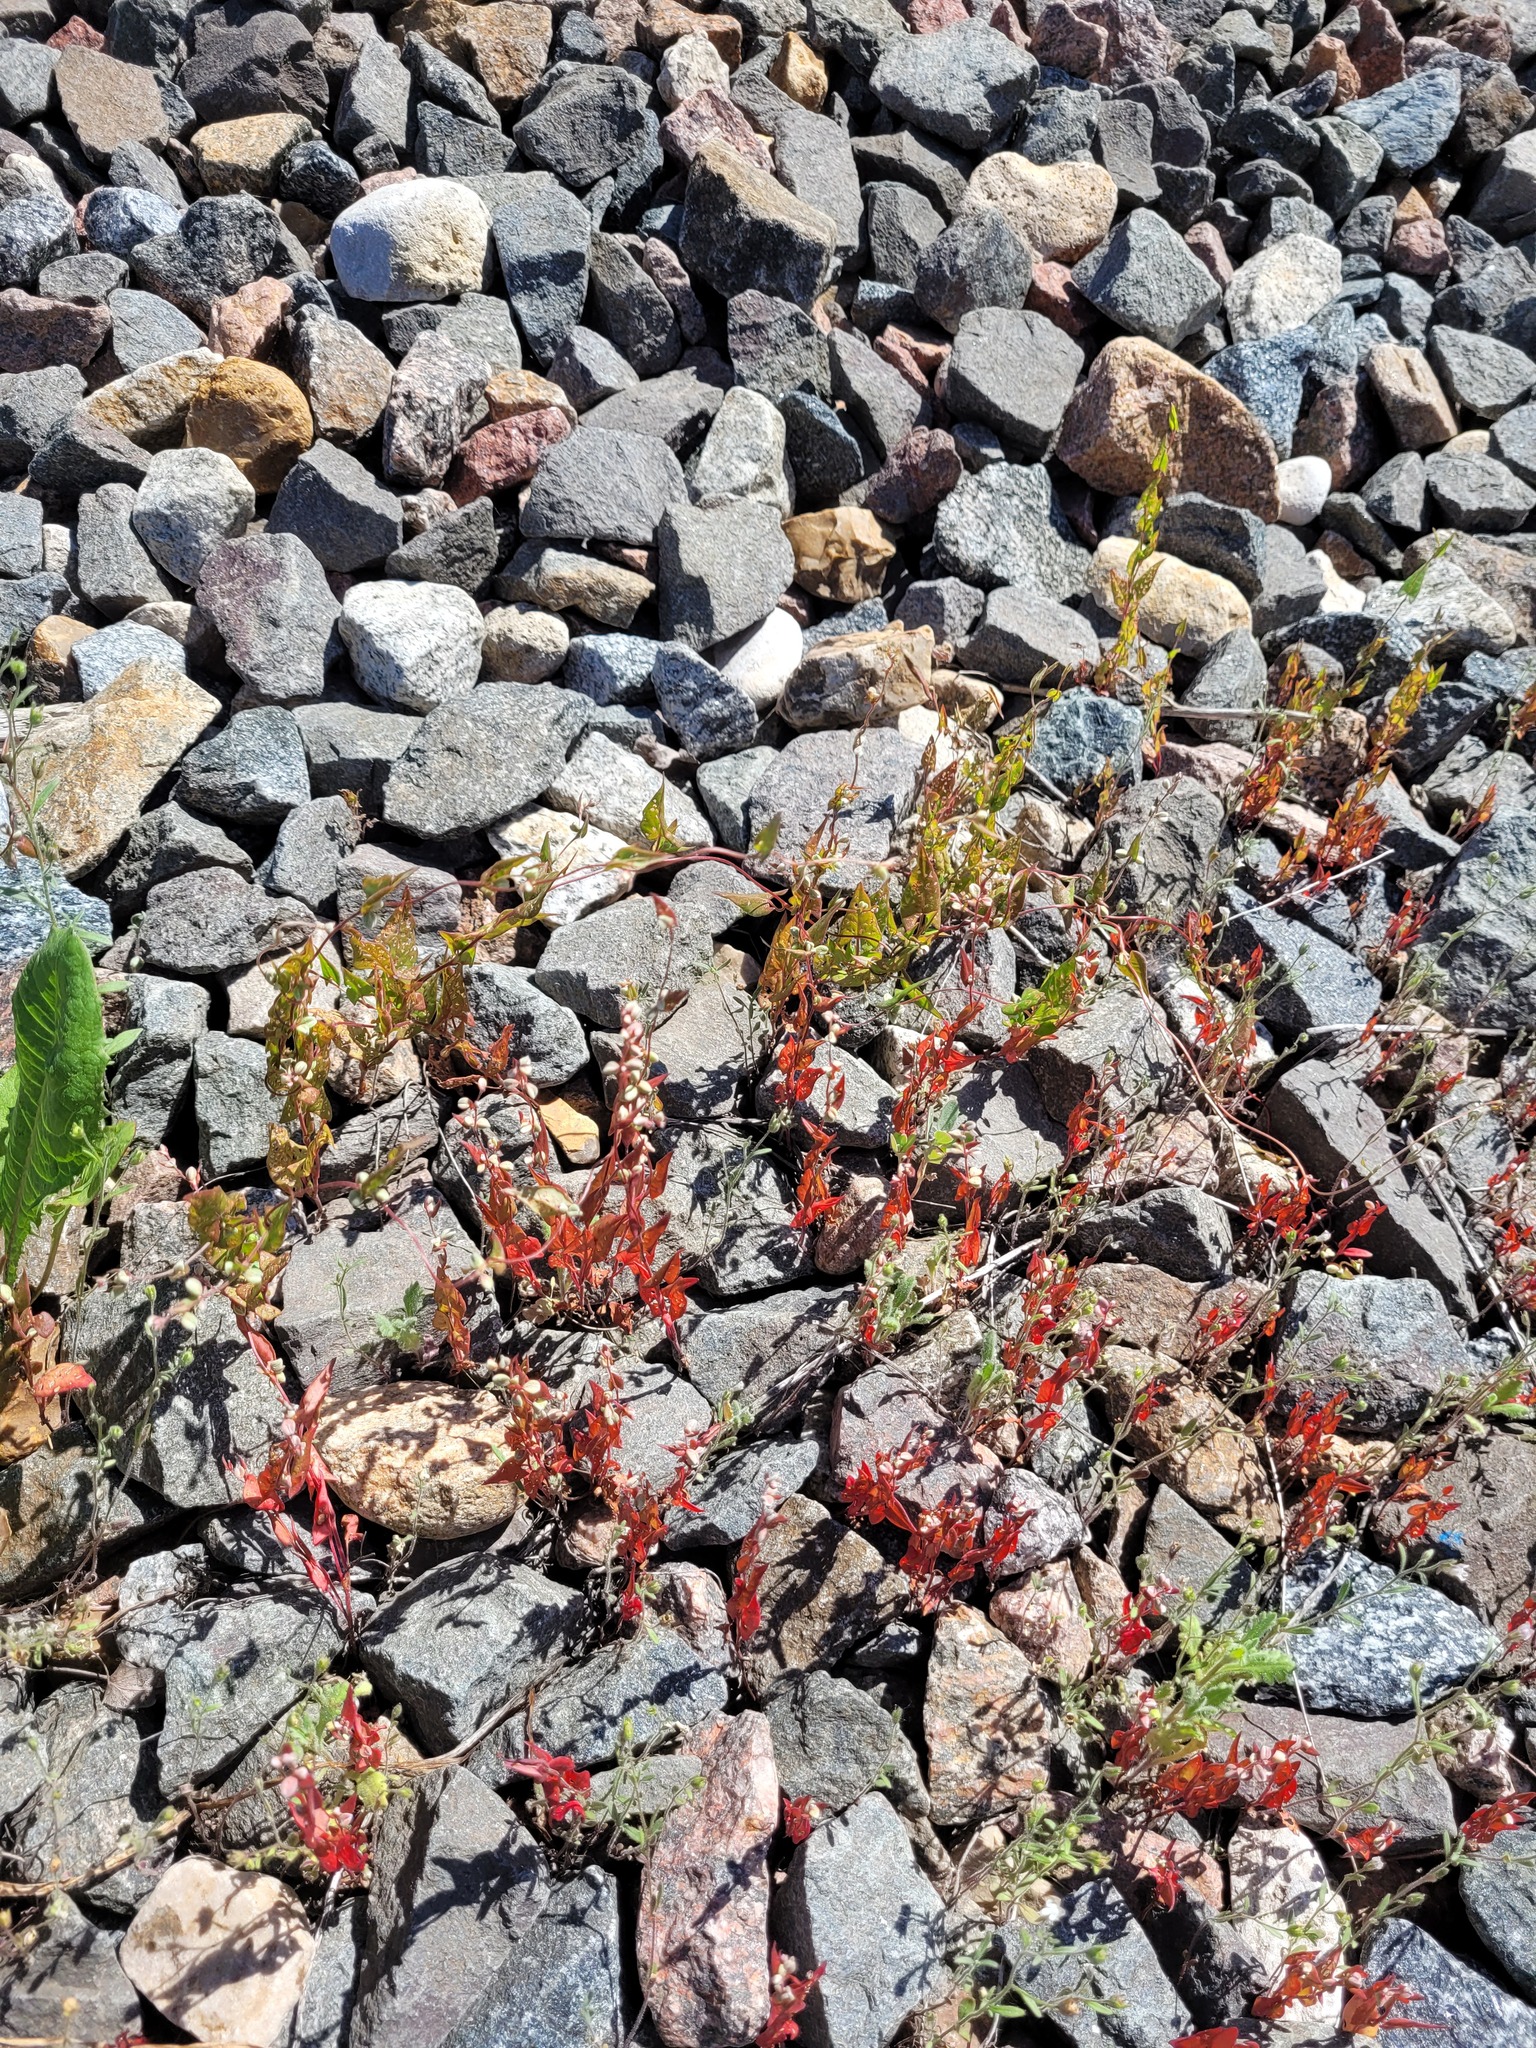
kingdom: Plantae
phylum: Tracheophyta
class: Magnoliopsida
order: Caryophyllales
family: Polygonaceae
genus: Fallopia
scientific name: Fallopia convolvulus
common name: Black bindweed
